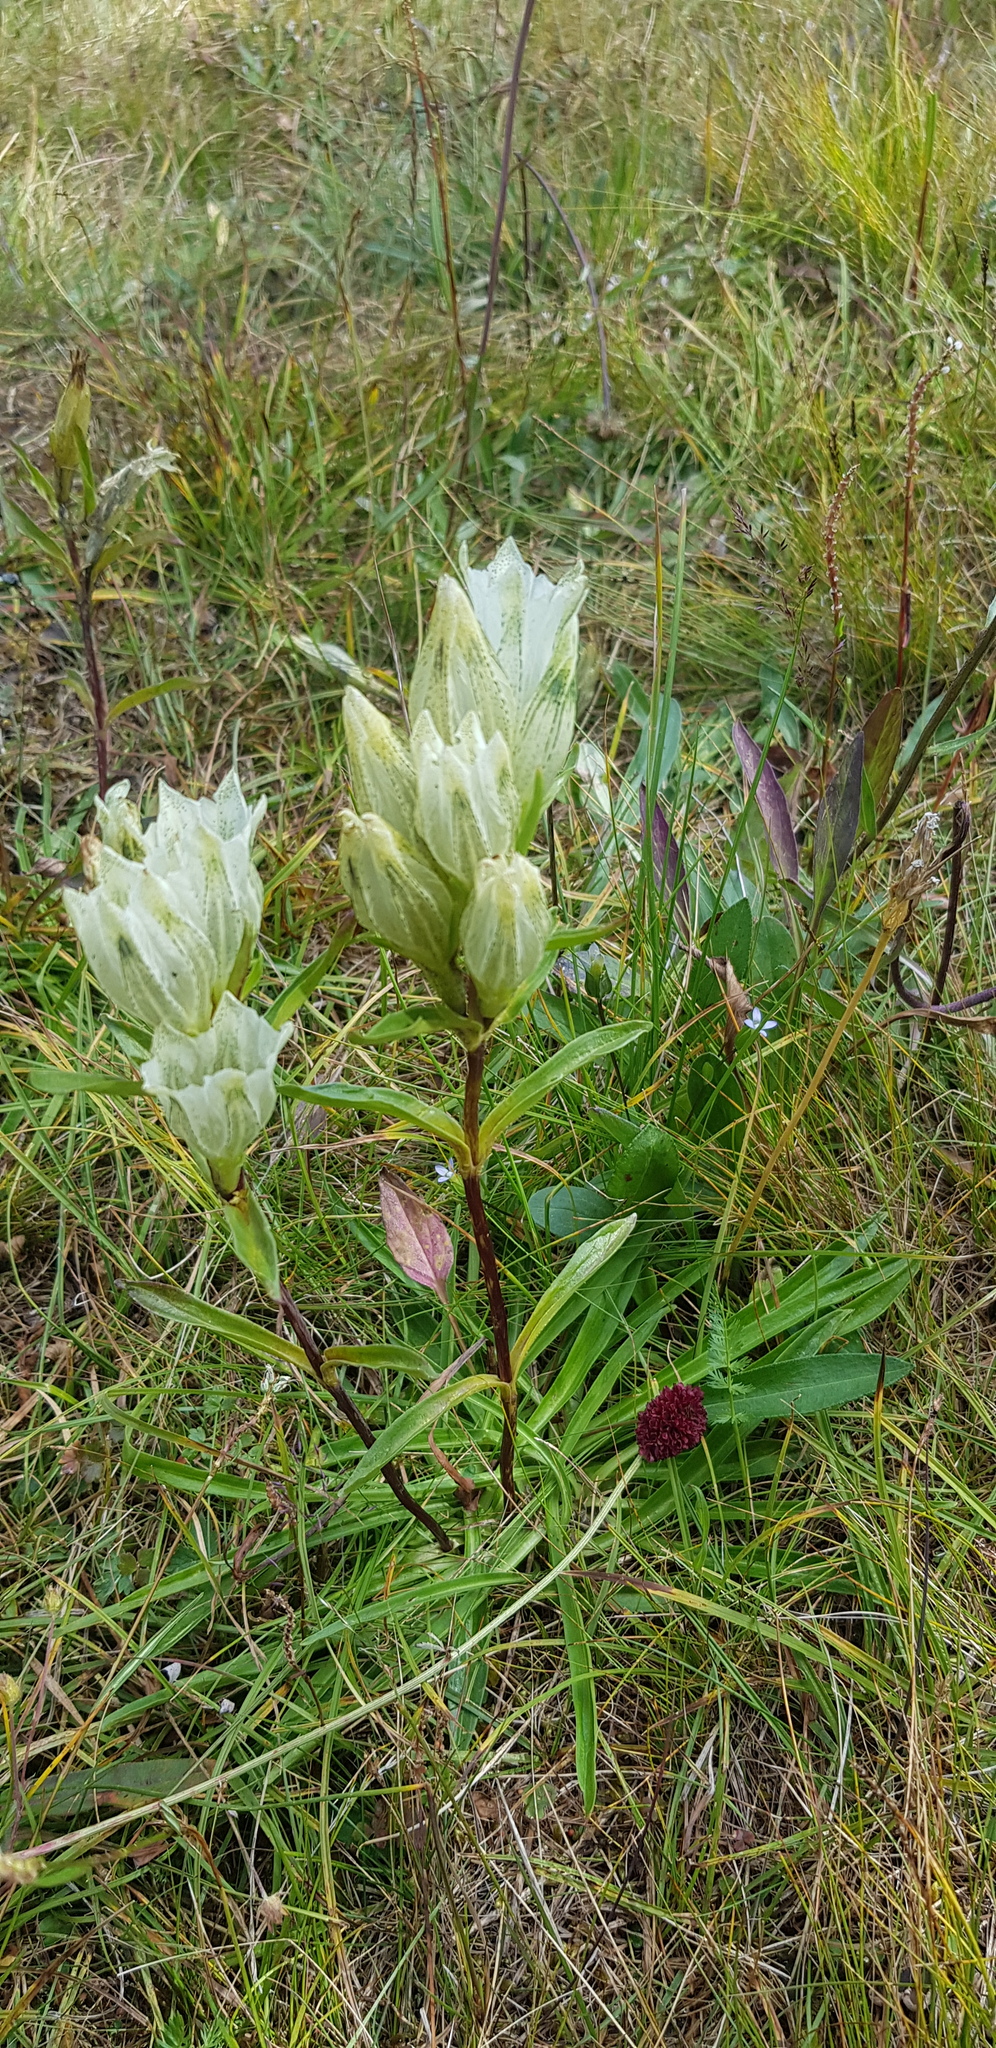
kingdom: Plantae
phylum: Tracheophyta
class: Magnoliopsida
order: Gentianales
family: Gentianaceae
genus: Gentiana
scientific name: Gentiana algida
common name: Arctic gentian
